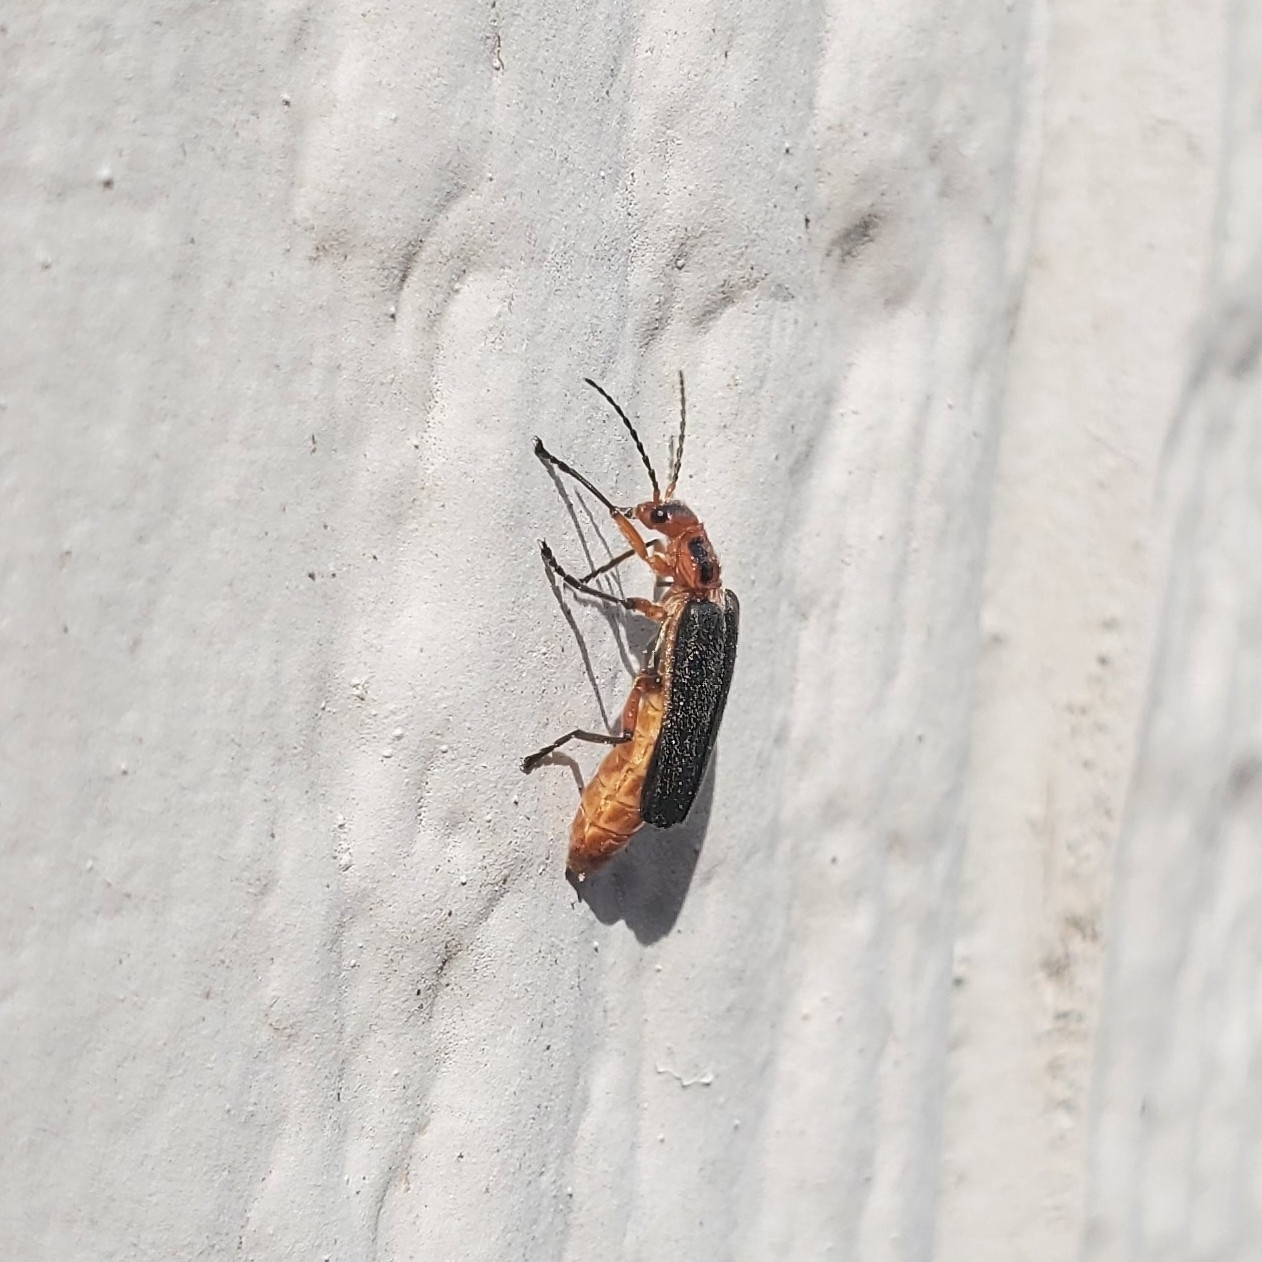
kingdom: Animalia
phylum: Arthropoda
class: Insecta
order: Coleoptera
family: Cantharidae
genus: Atalantycha
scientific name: Atalantycha bilineata
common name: Two-lined leatherwing
